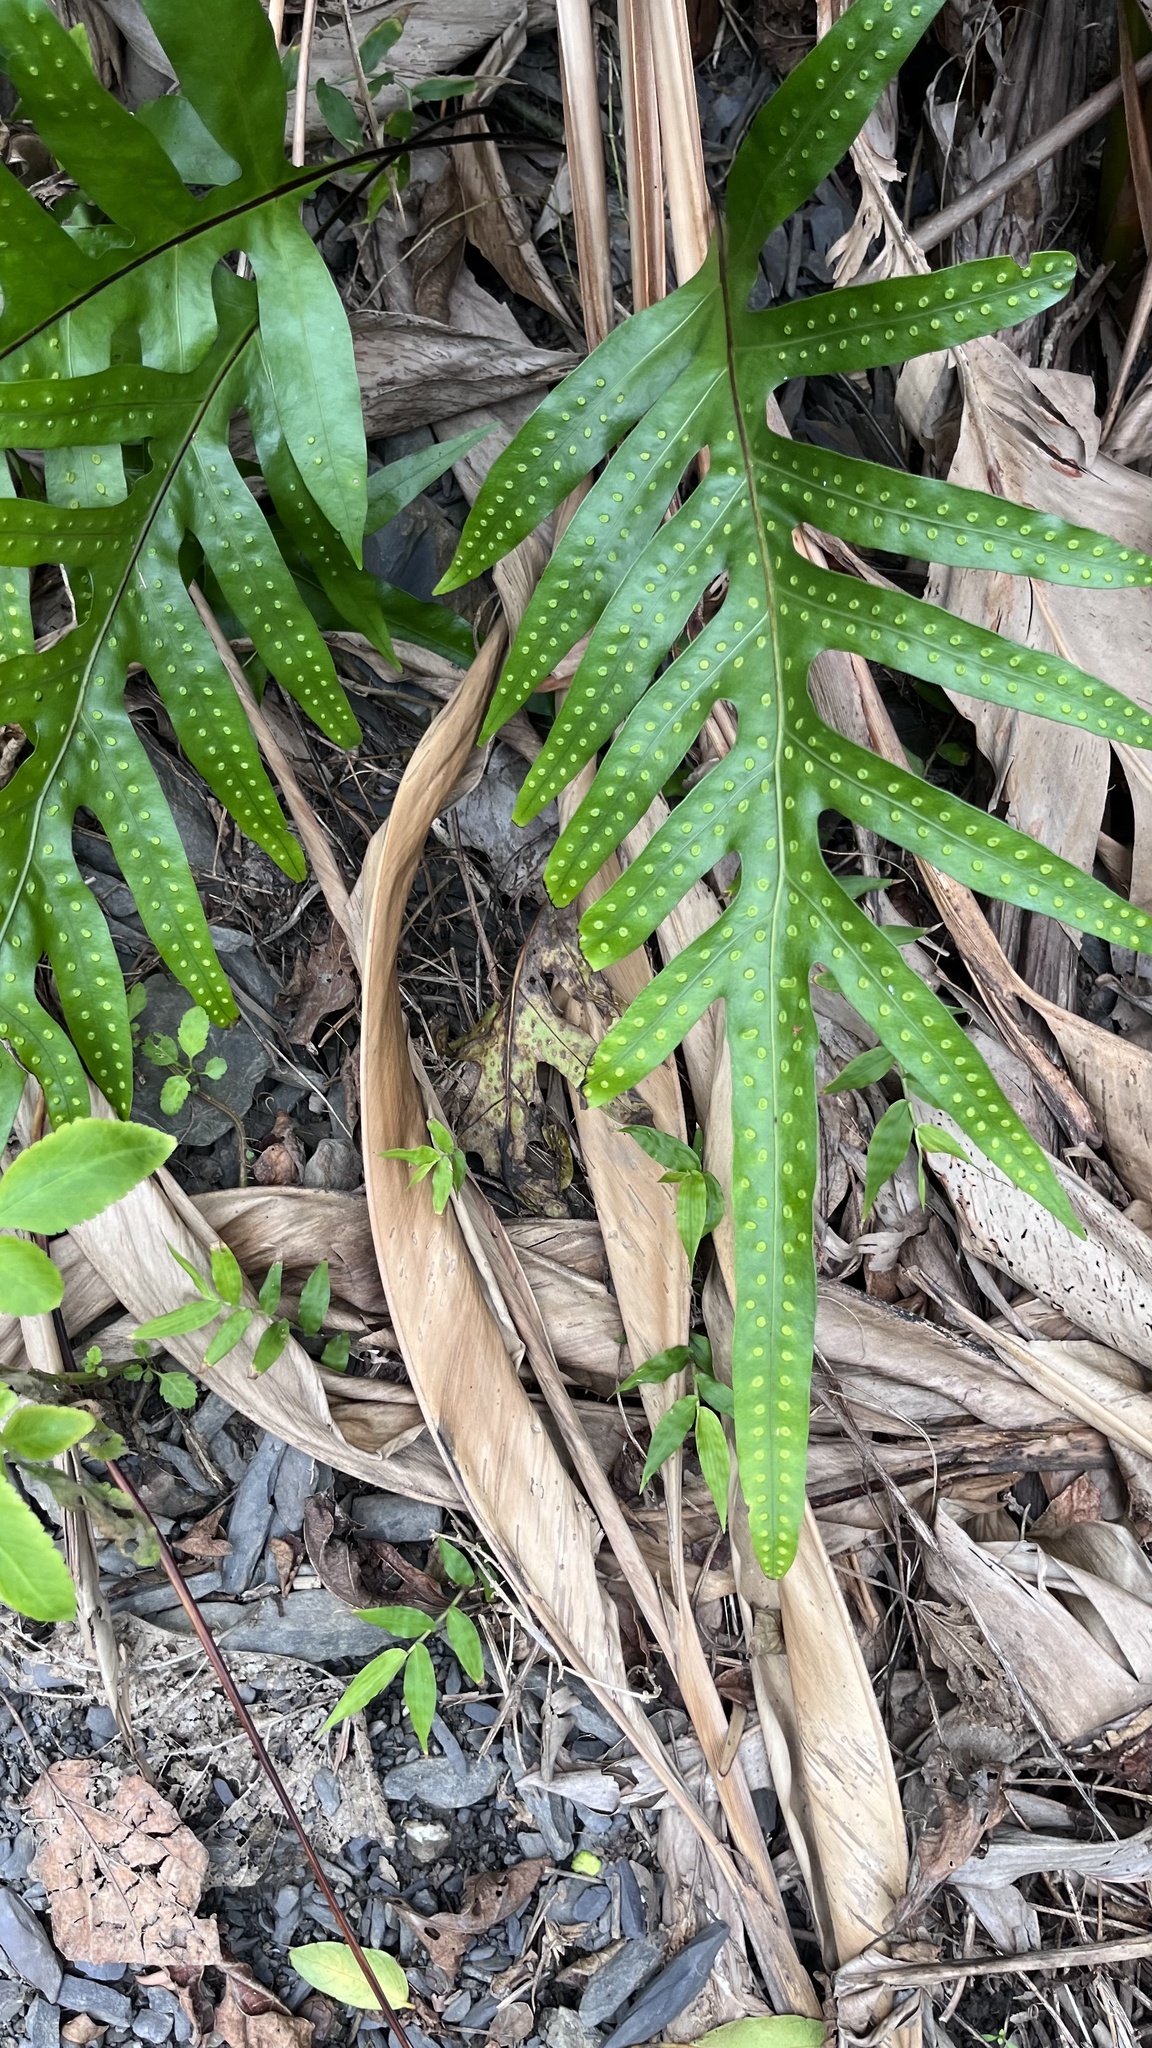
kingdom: Plantae
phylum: Tracheophyta
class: Polypodiopsida
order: Polypodiales
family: Polypodiaceae
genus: Microsorum
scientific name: Microsorum scolopendria
